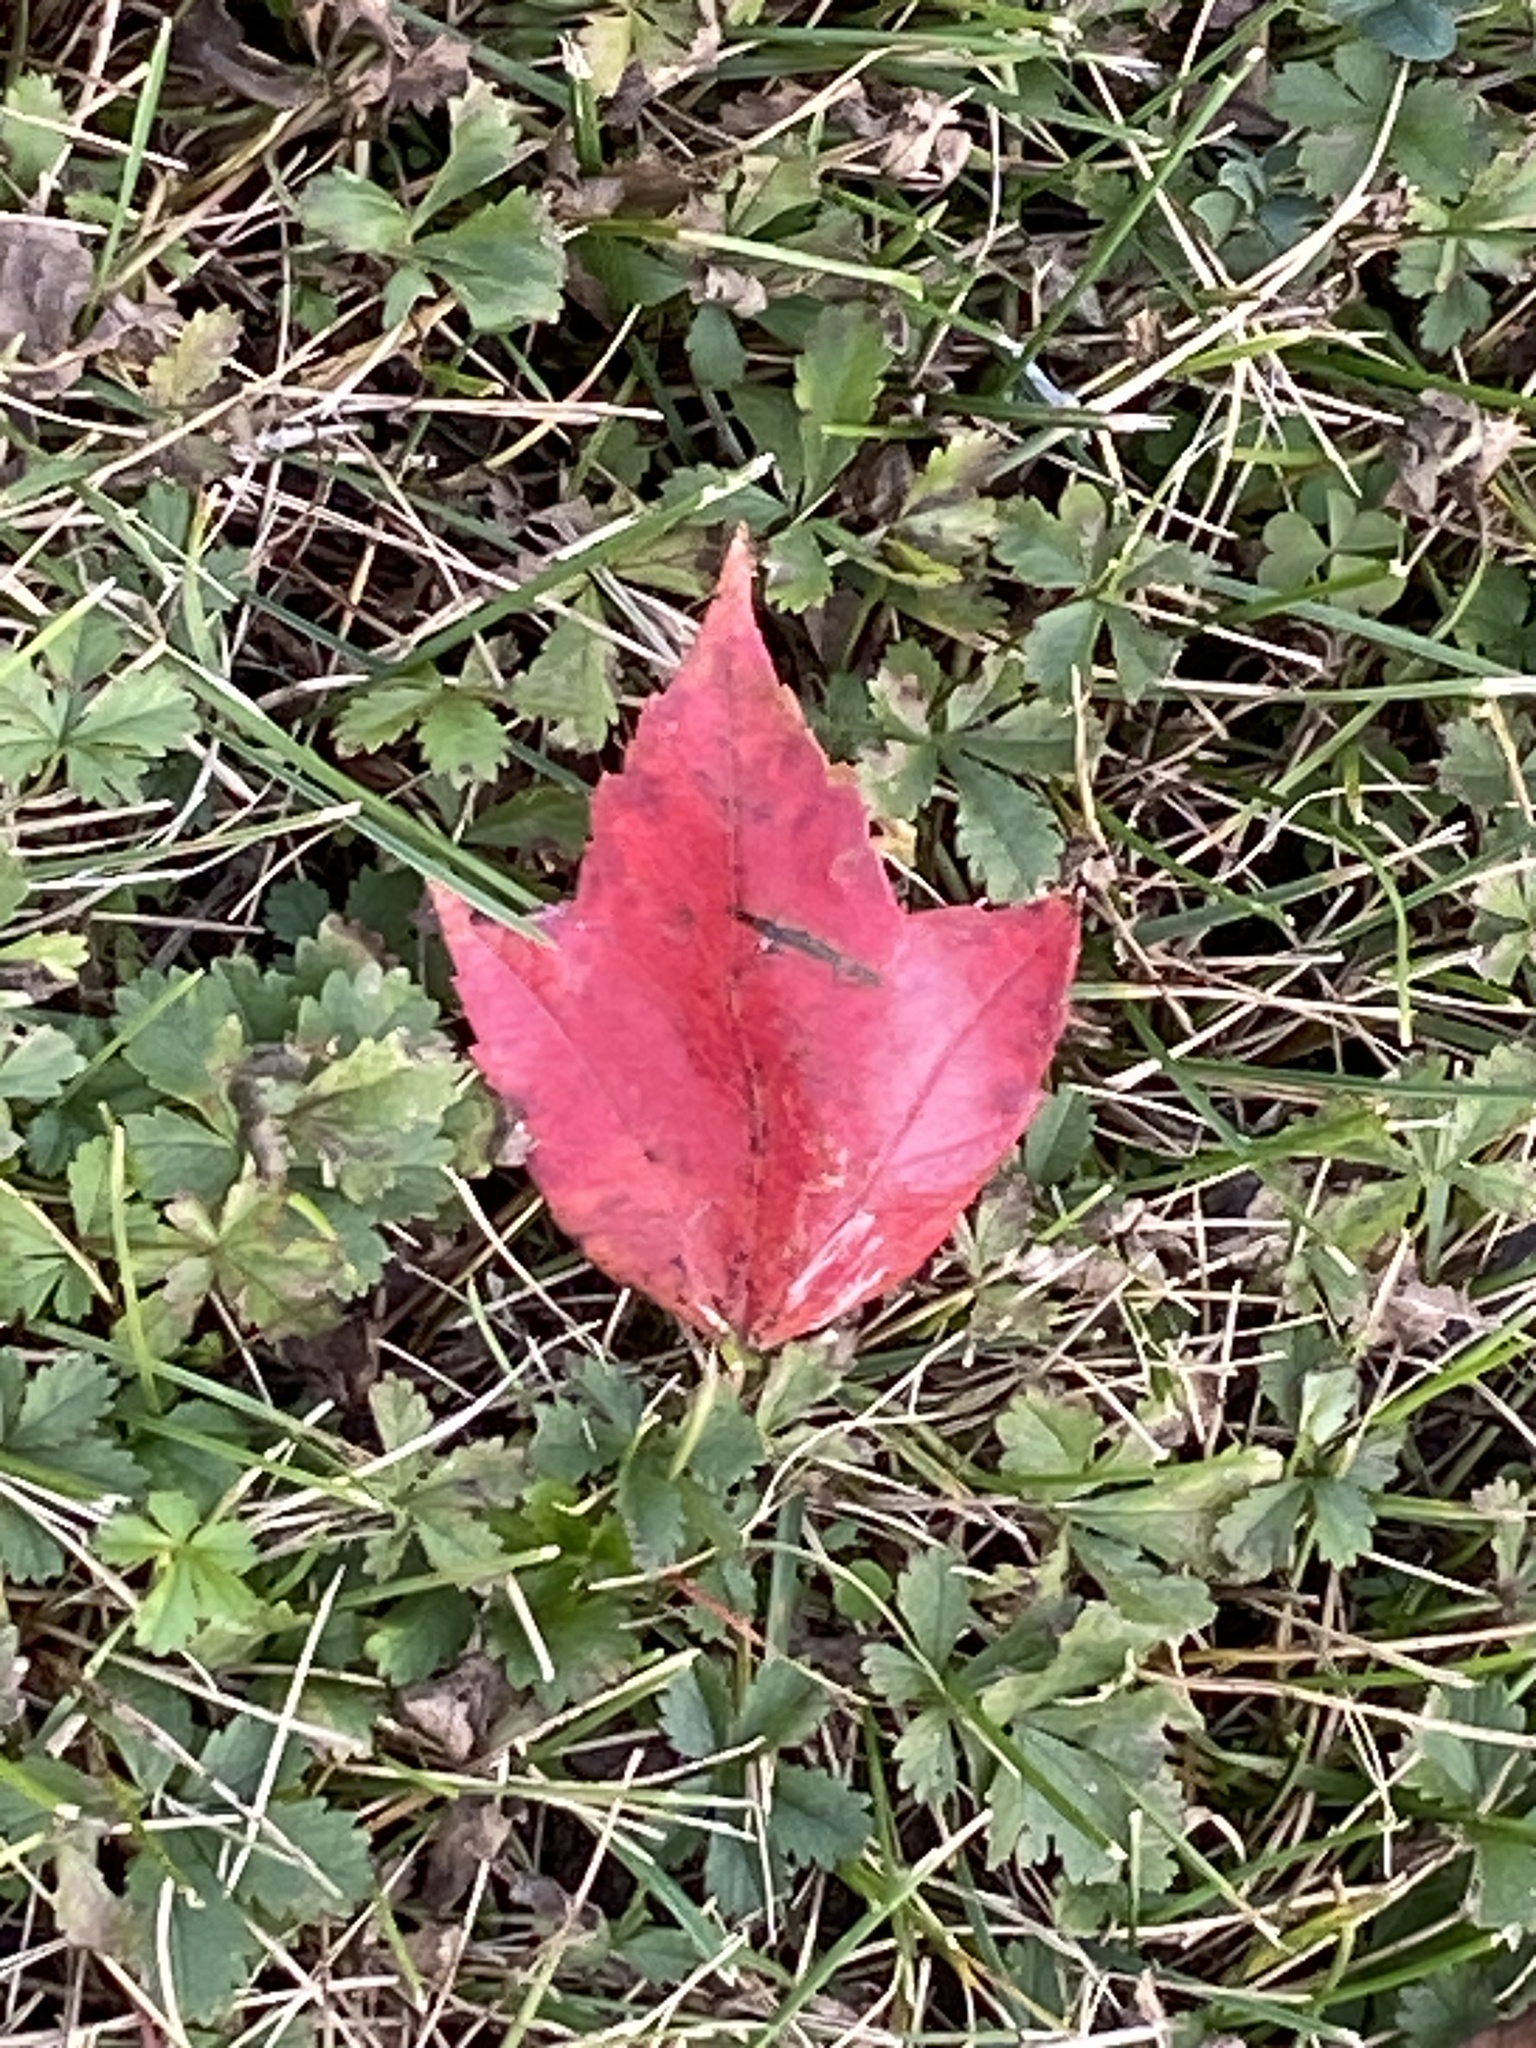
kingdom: Plantae
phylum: Tracheophyta
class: Magnoliopsida
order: Sapindales
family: Sapindaceae
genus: Acer
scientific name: Acer rubrum
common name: Red maple
